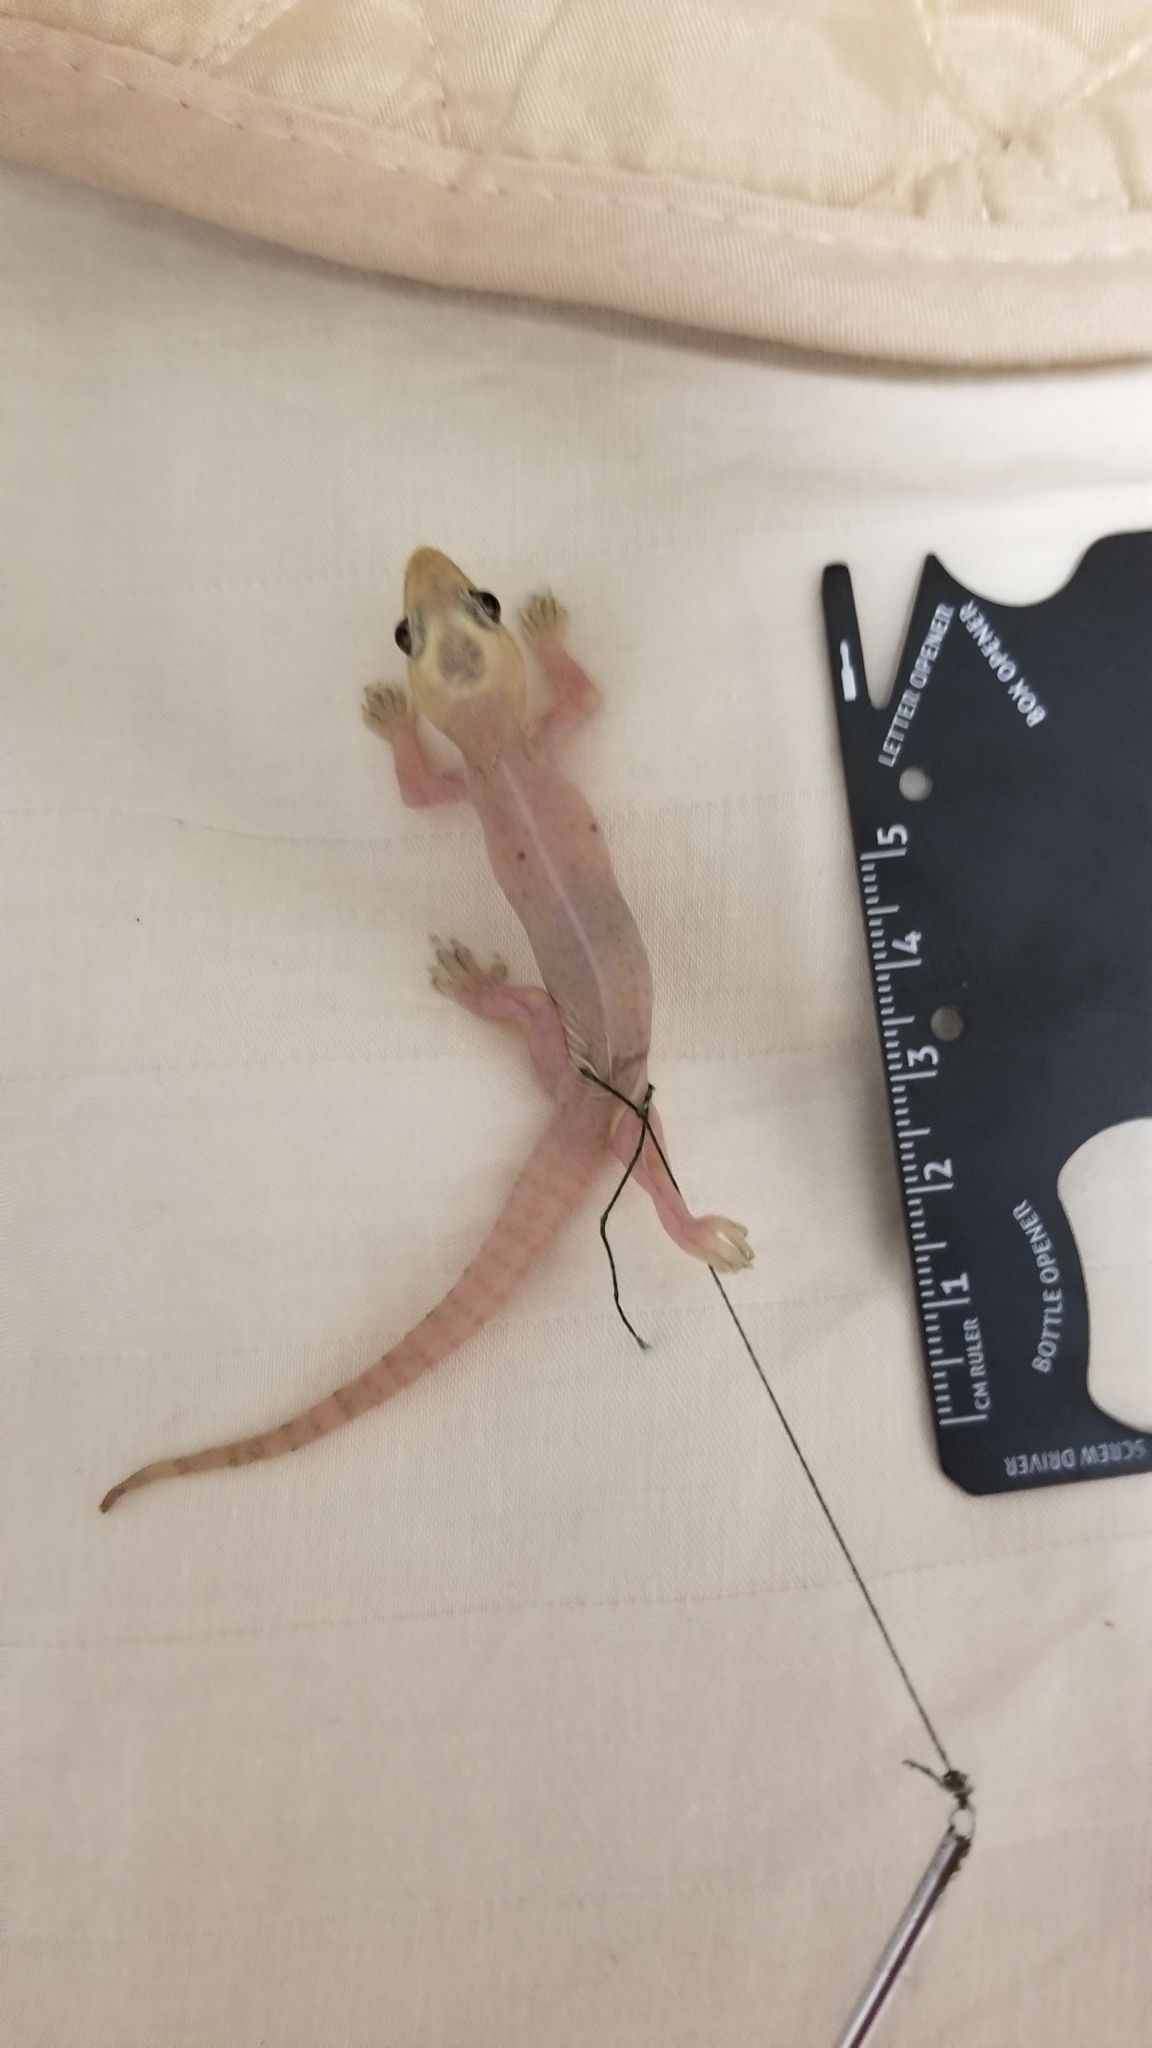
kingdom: Animalia
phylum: Chordata
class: Squamata
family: Gekkonidae
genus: Hemidactylus
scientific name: Hemidactylus frenatus
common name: Common house gecko
